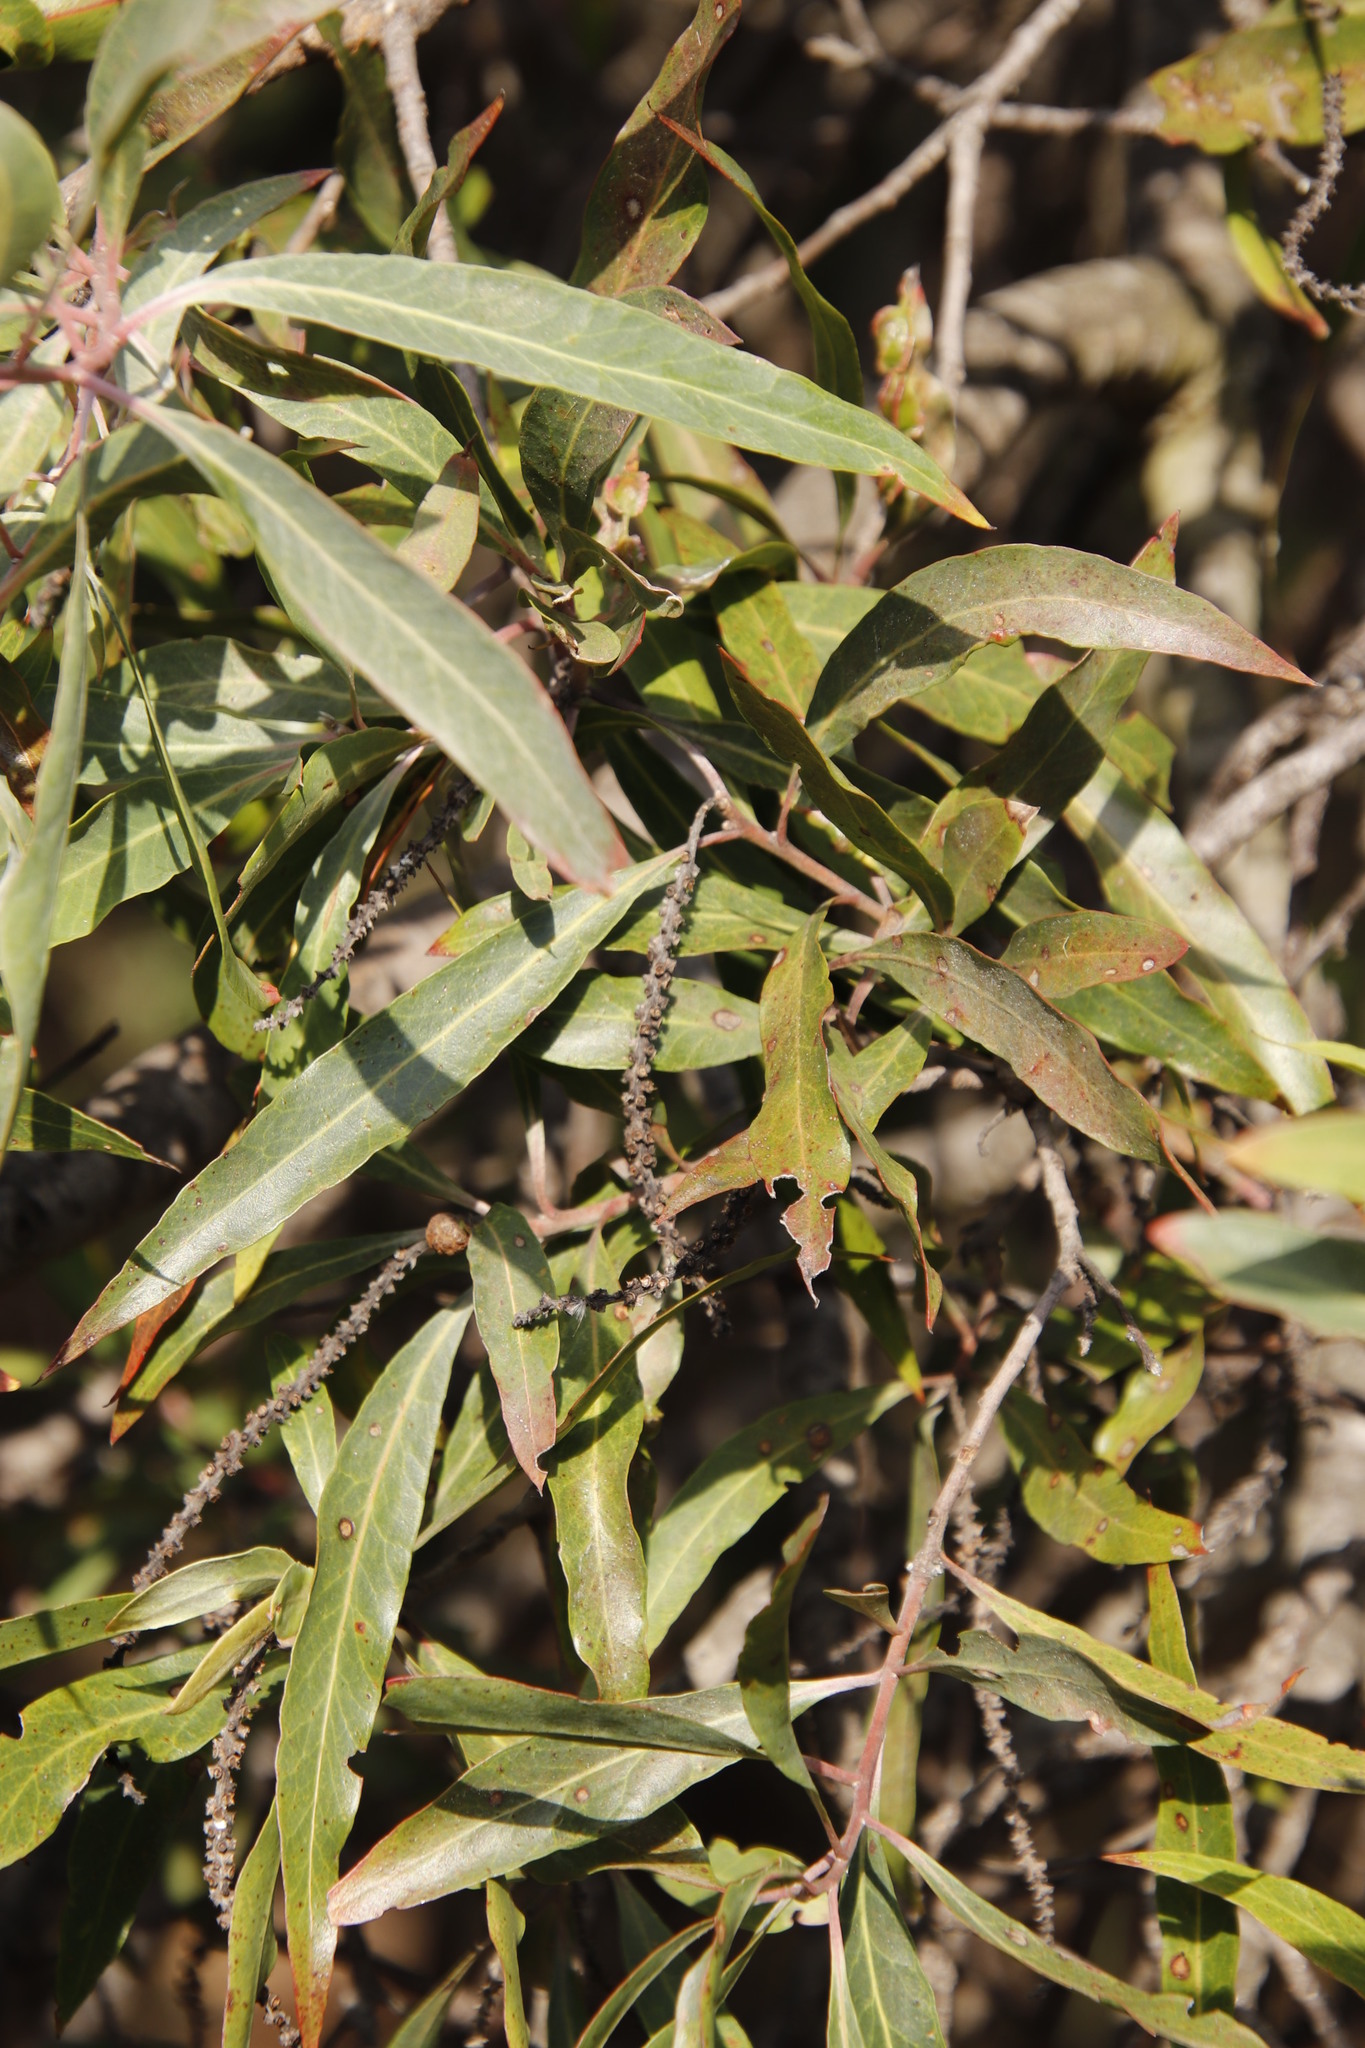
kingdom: Plantae
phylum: Tracheophyta
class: Magnoliopsida
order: Proteales
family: Proteaceae
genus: Faurea
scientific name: Faurea saligna
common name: African bean
